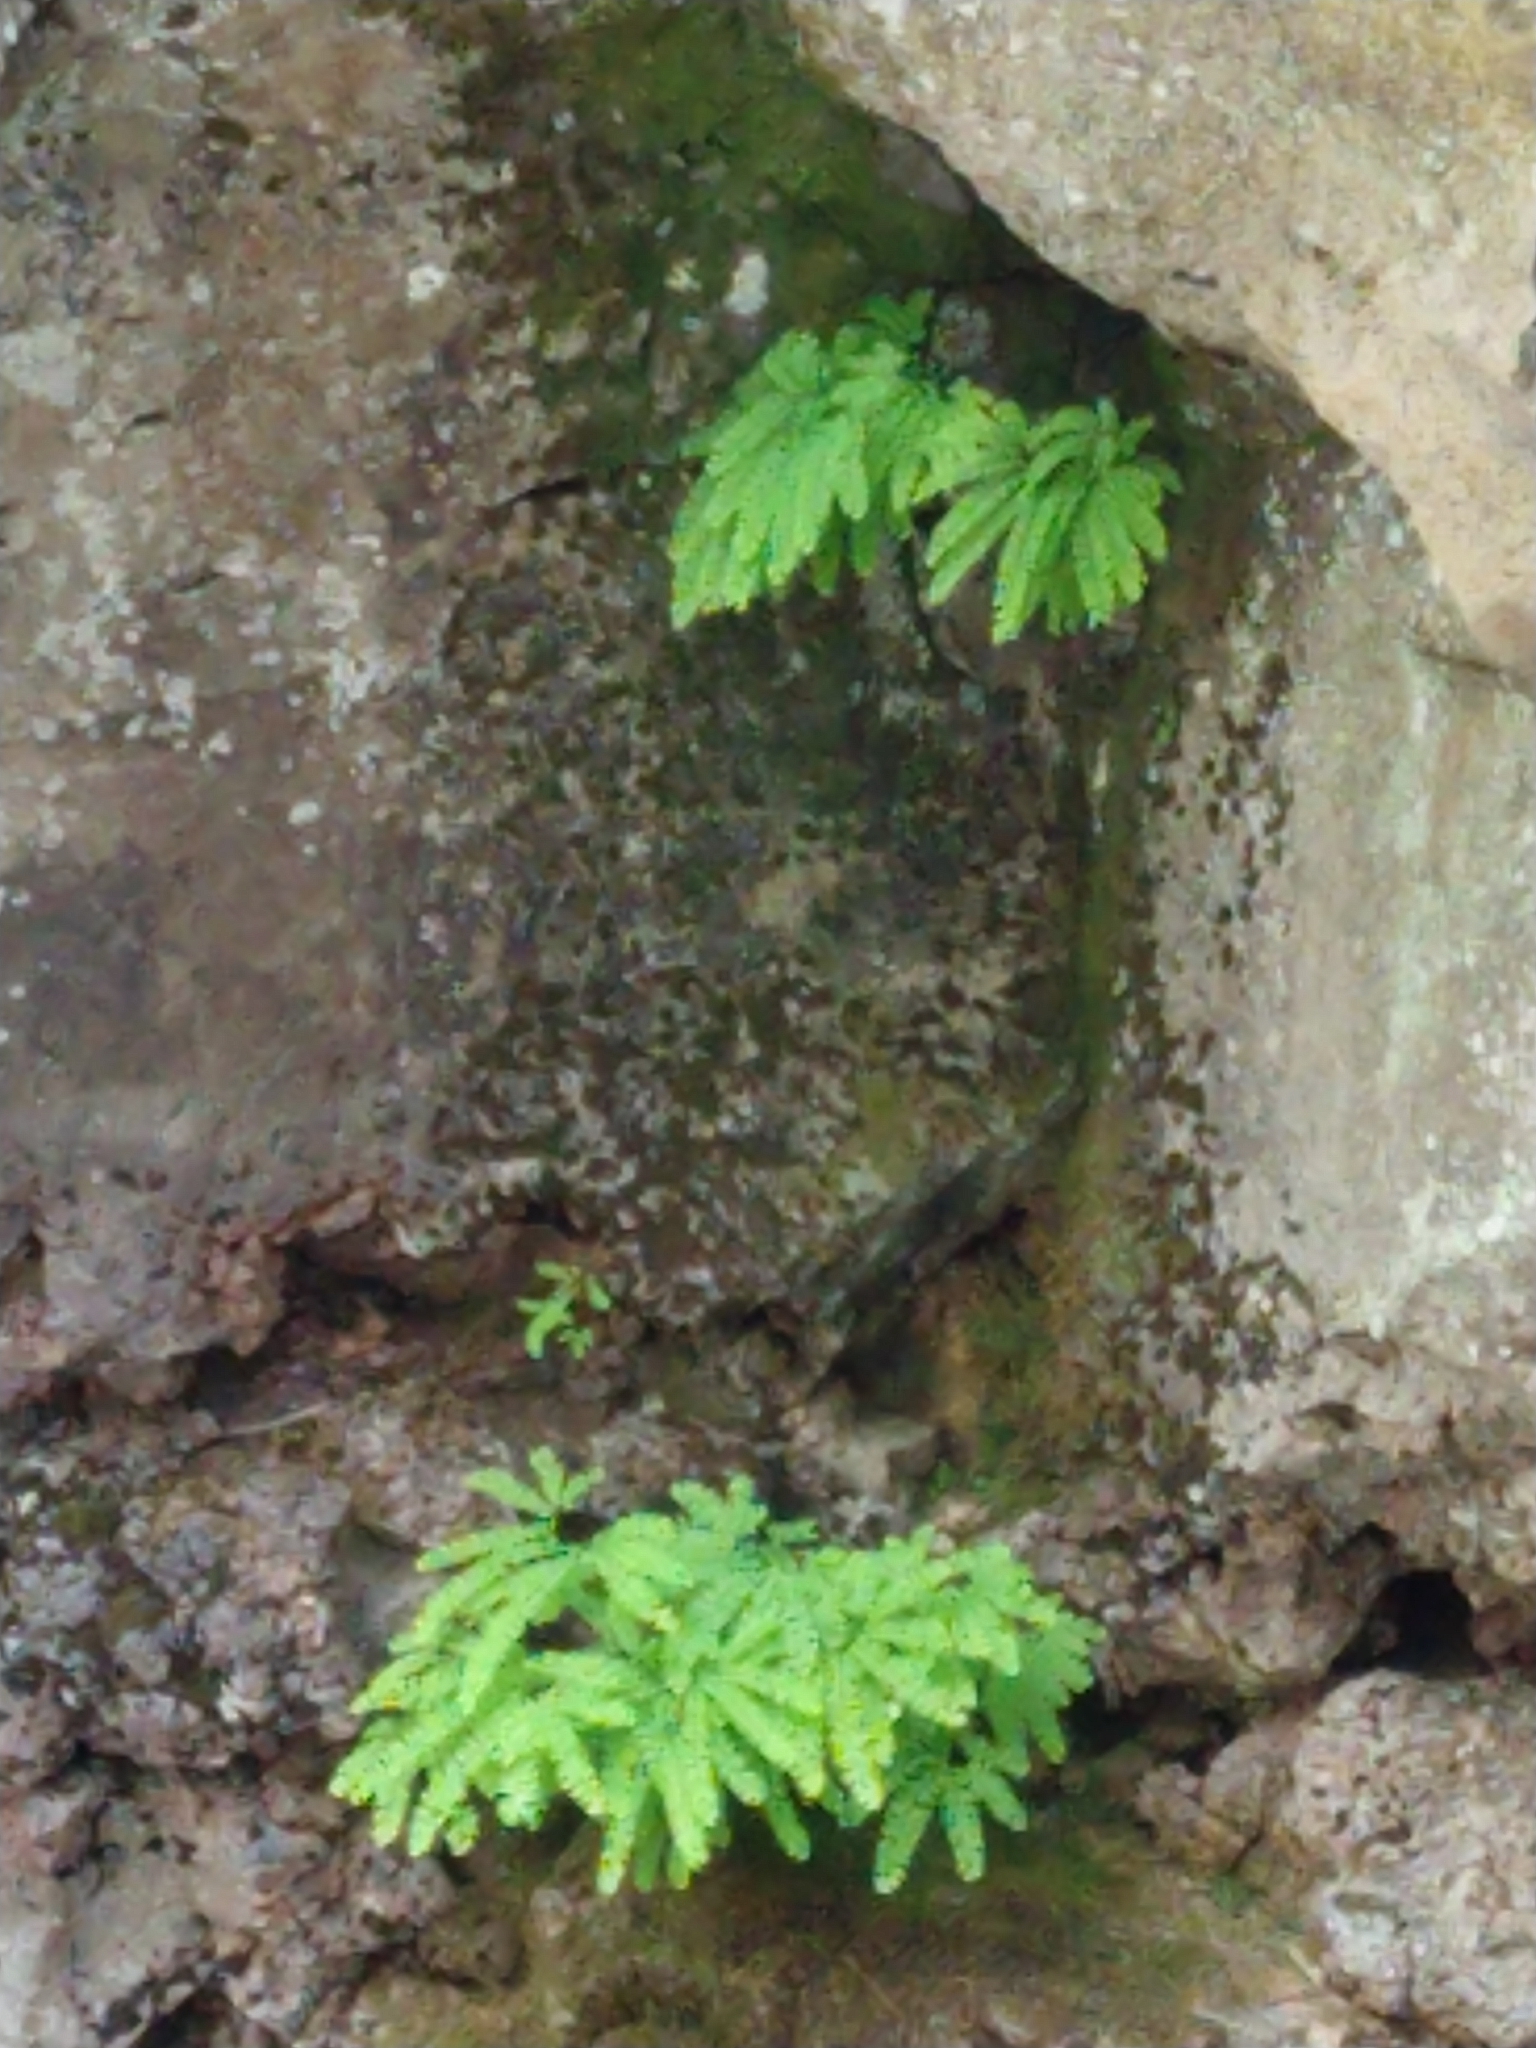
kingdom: Plantae
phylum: Tracheophyta
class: Polypodiopsida
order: Polypodiales
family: Pteridaceae
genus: Adiantum
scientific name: Adiantum aleuticum
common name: Aleutian maidenhair fern
